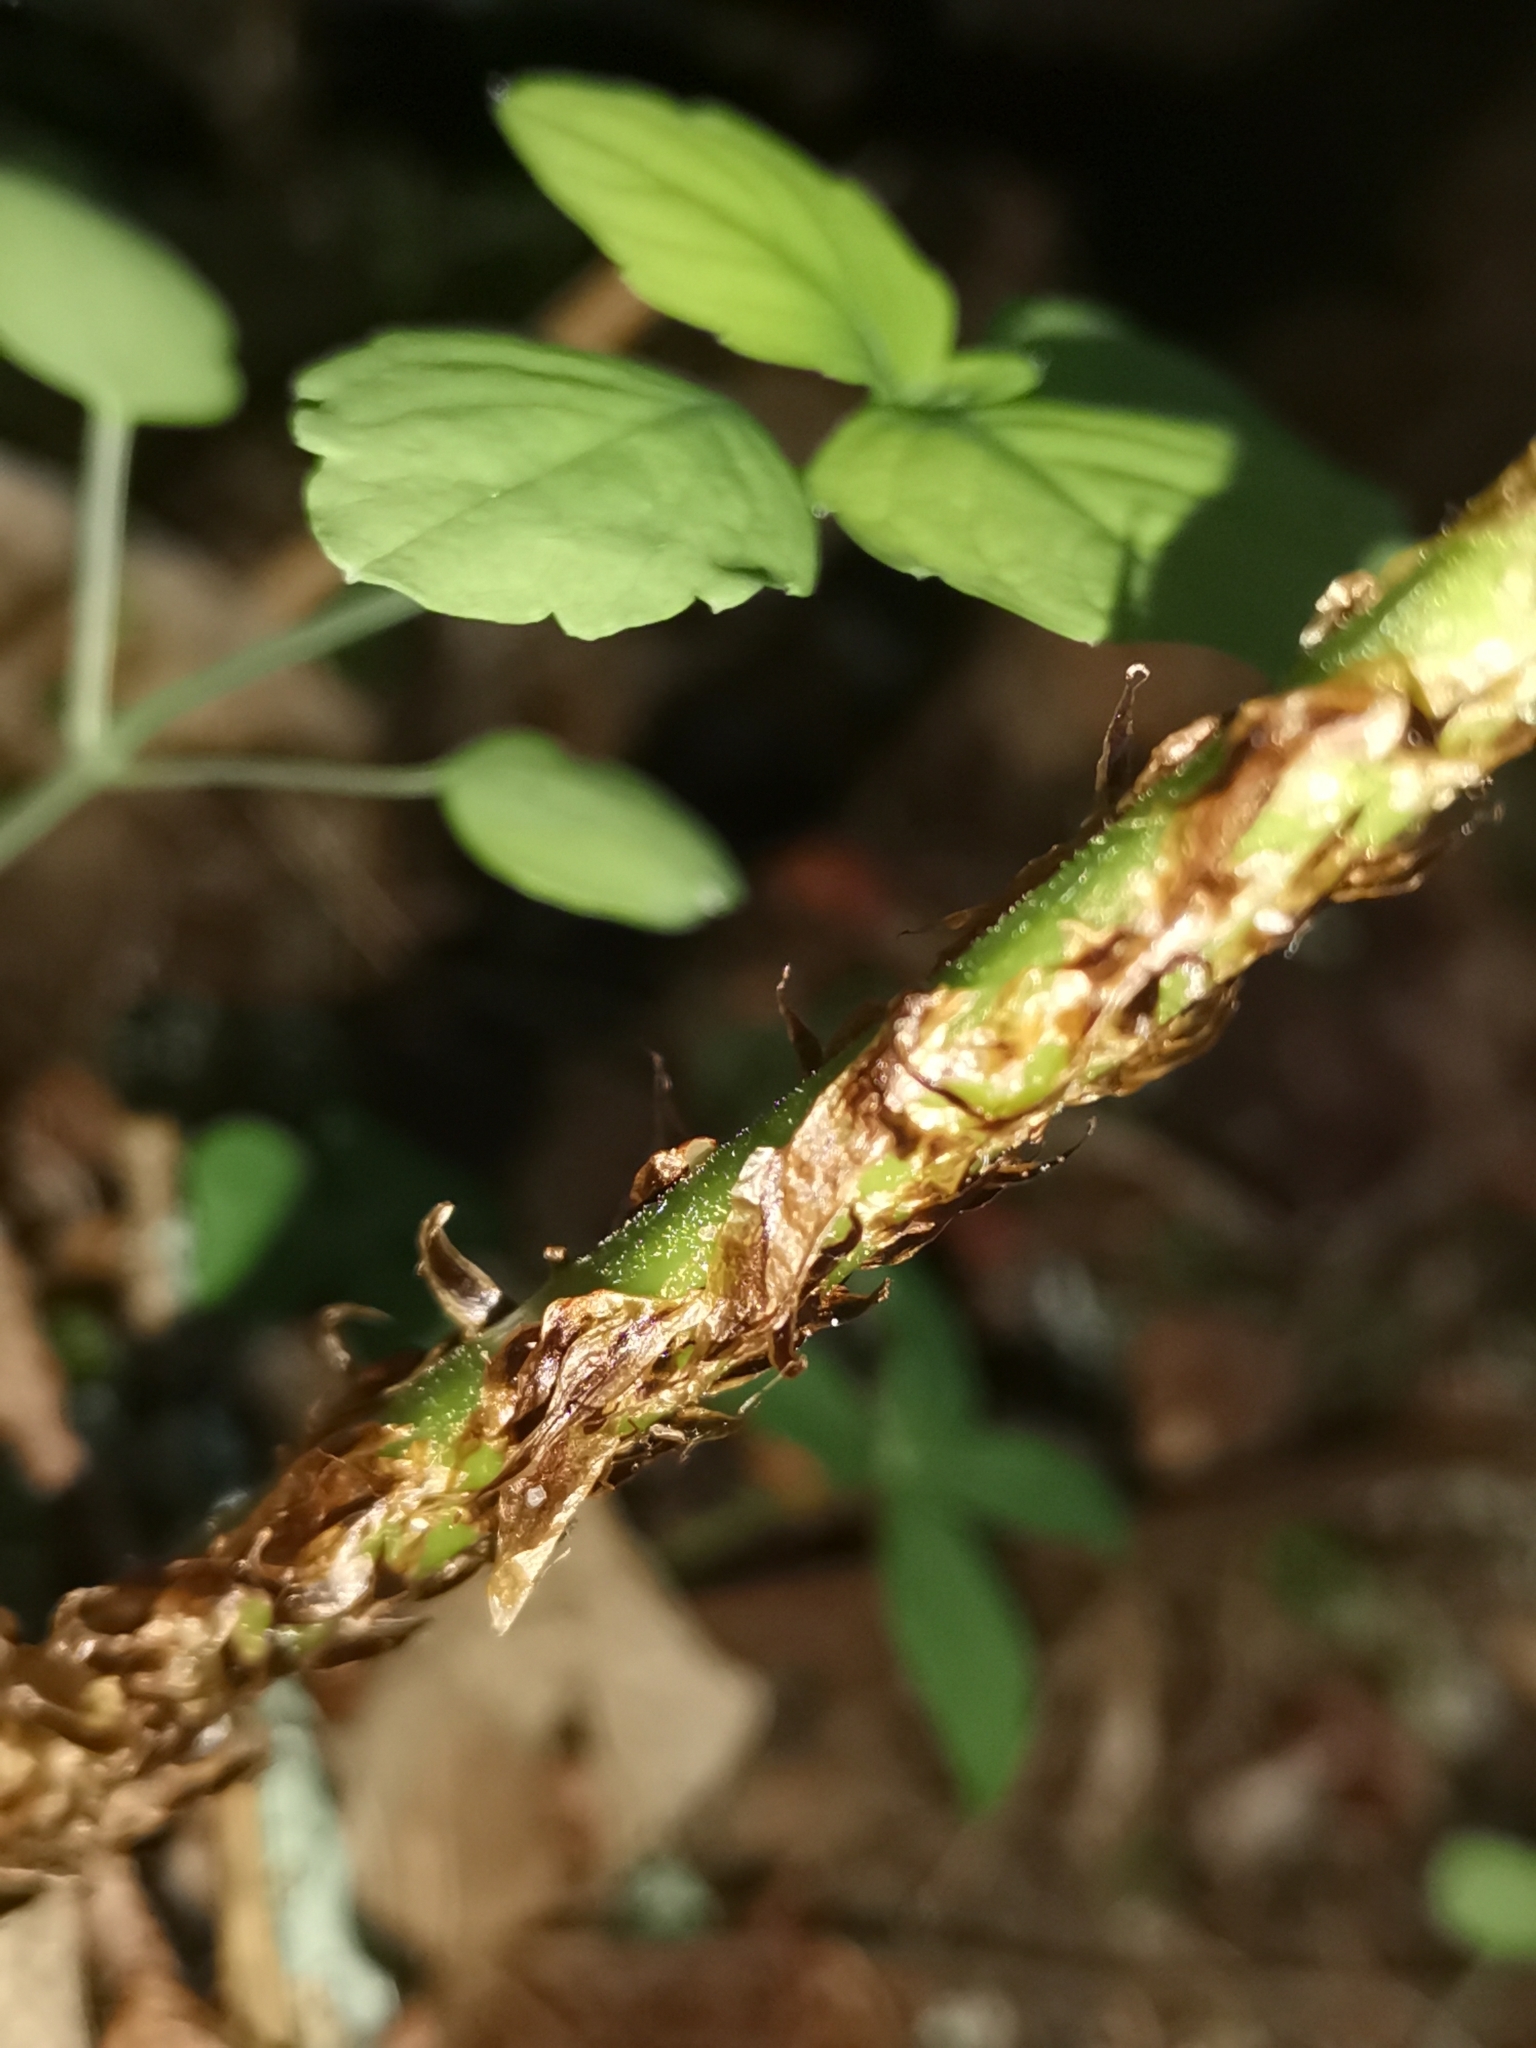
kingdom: Plantae
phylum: Tracheophyta
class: Polypodiopsida
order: Polypodiales
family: Dryopteridaceae
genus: Dryopteris
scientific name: Dryopteris dilatata
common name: Broad buckler-fern
